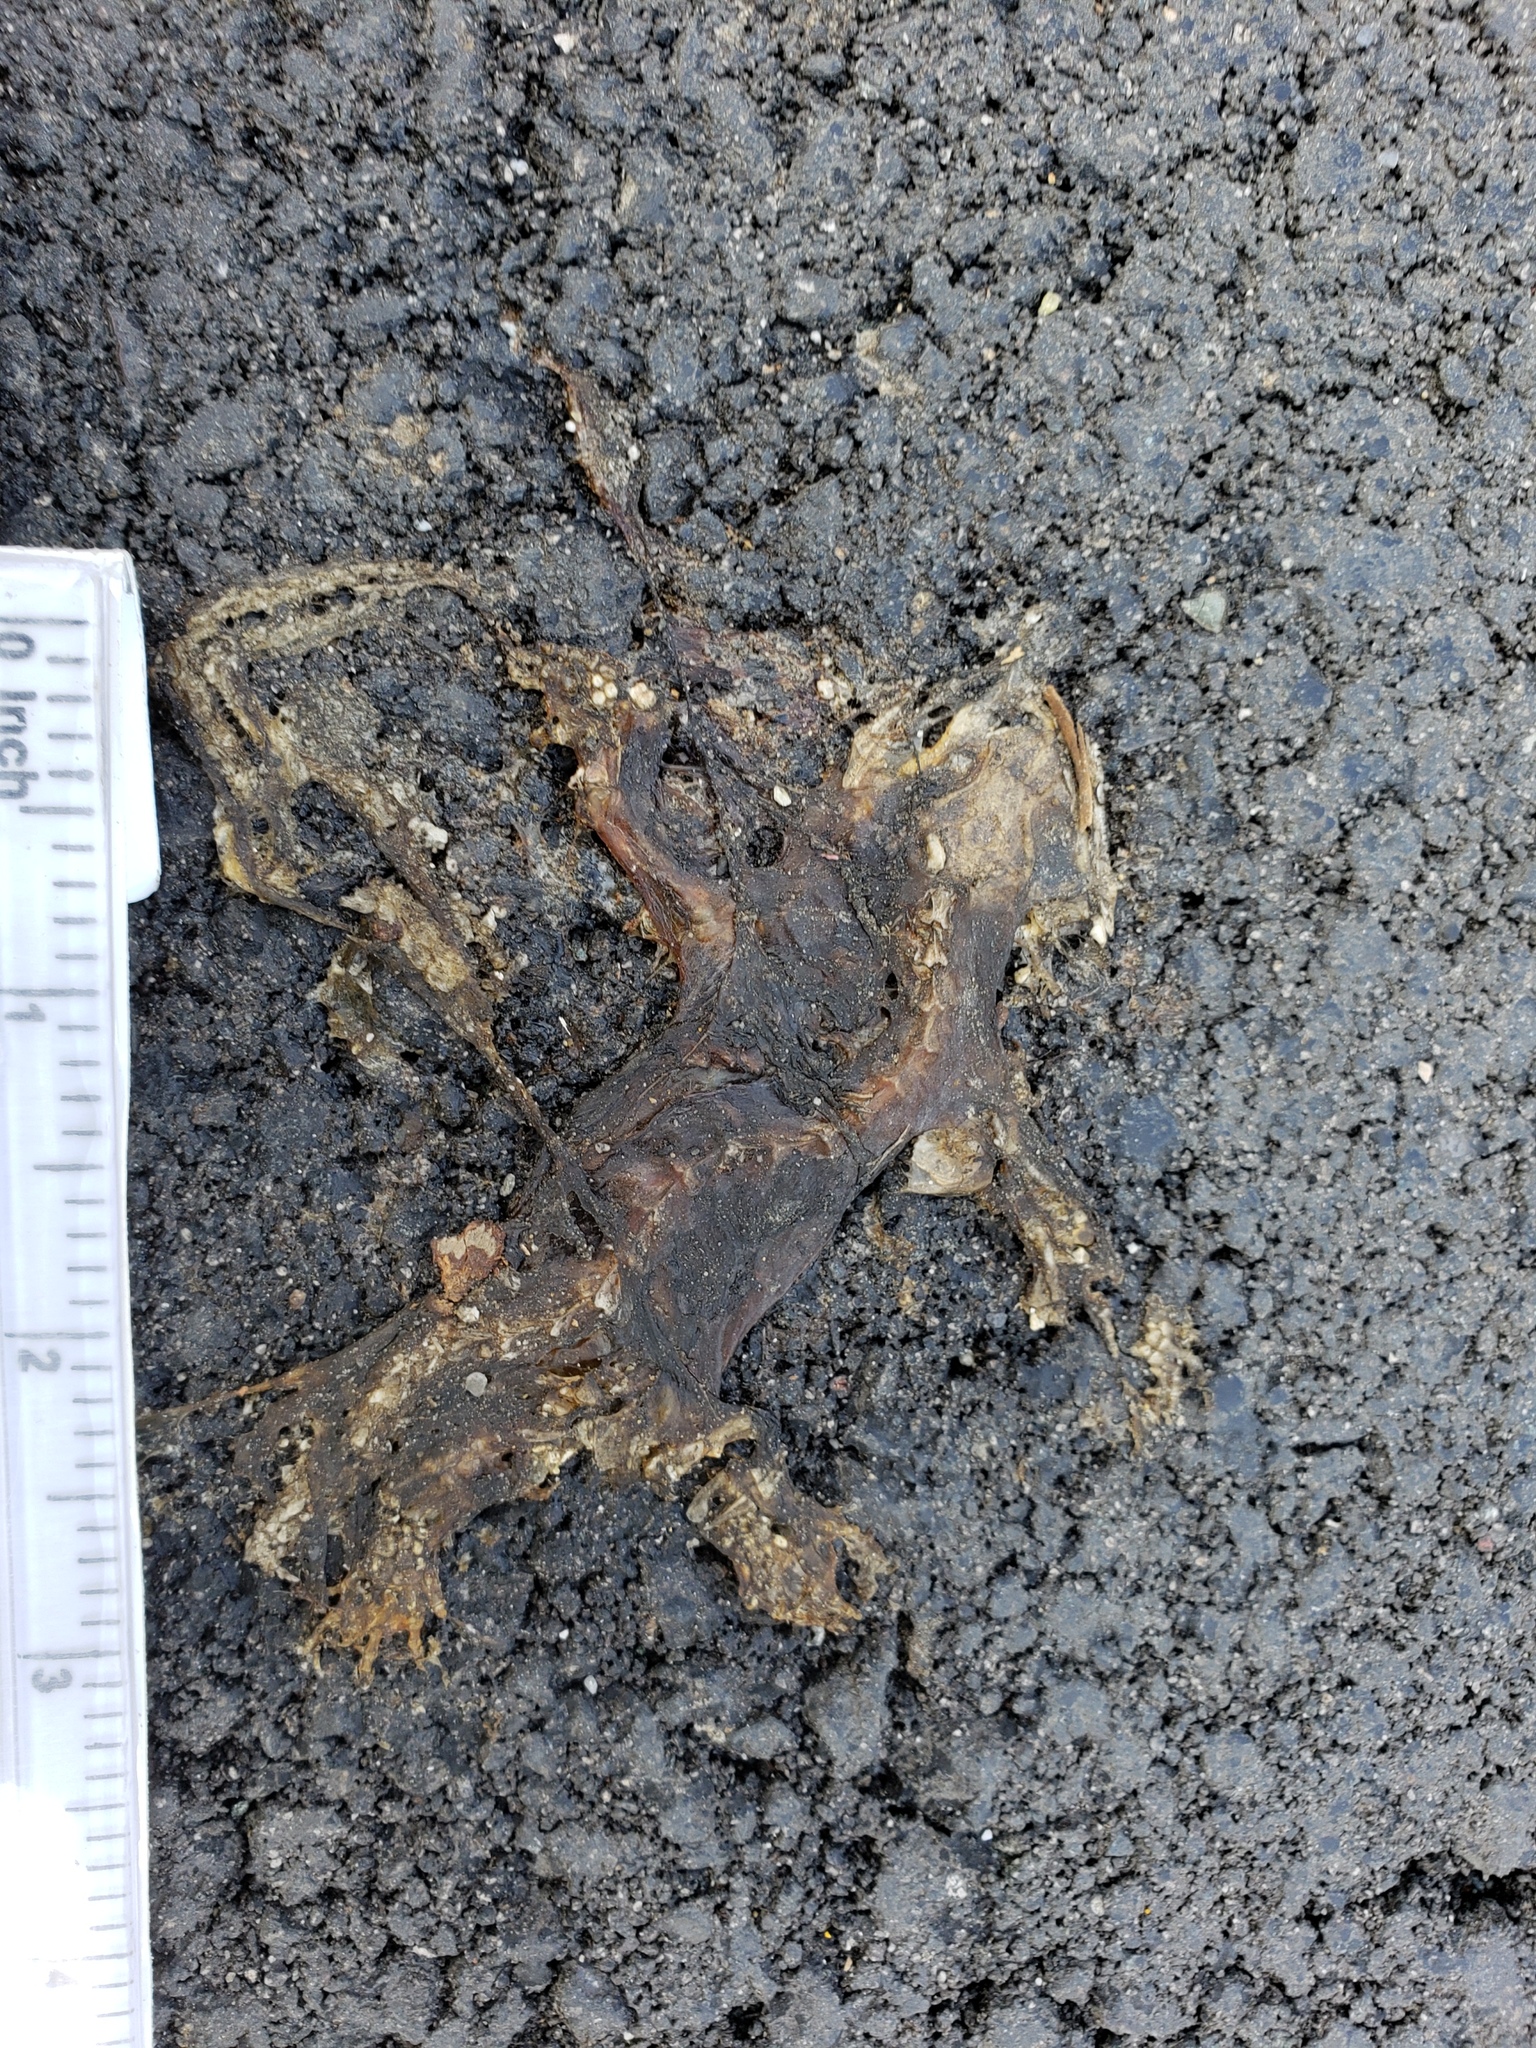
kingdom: Animalia
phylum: Chordata
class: Amphibia
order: Caudata
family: Salamandridae
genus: Taricha
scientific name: Taricha
